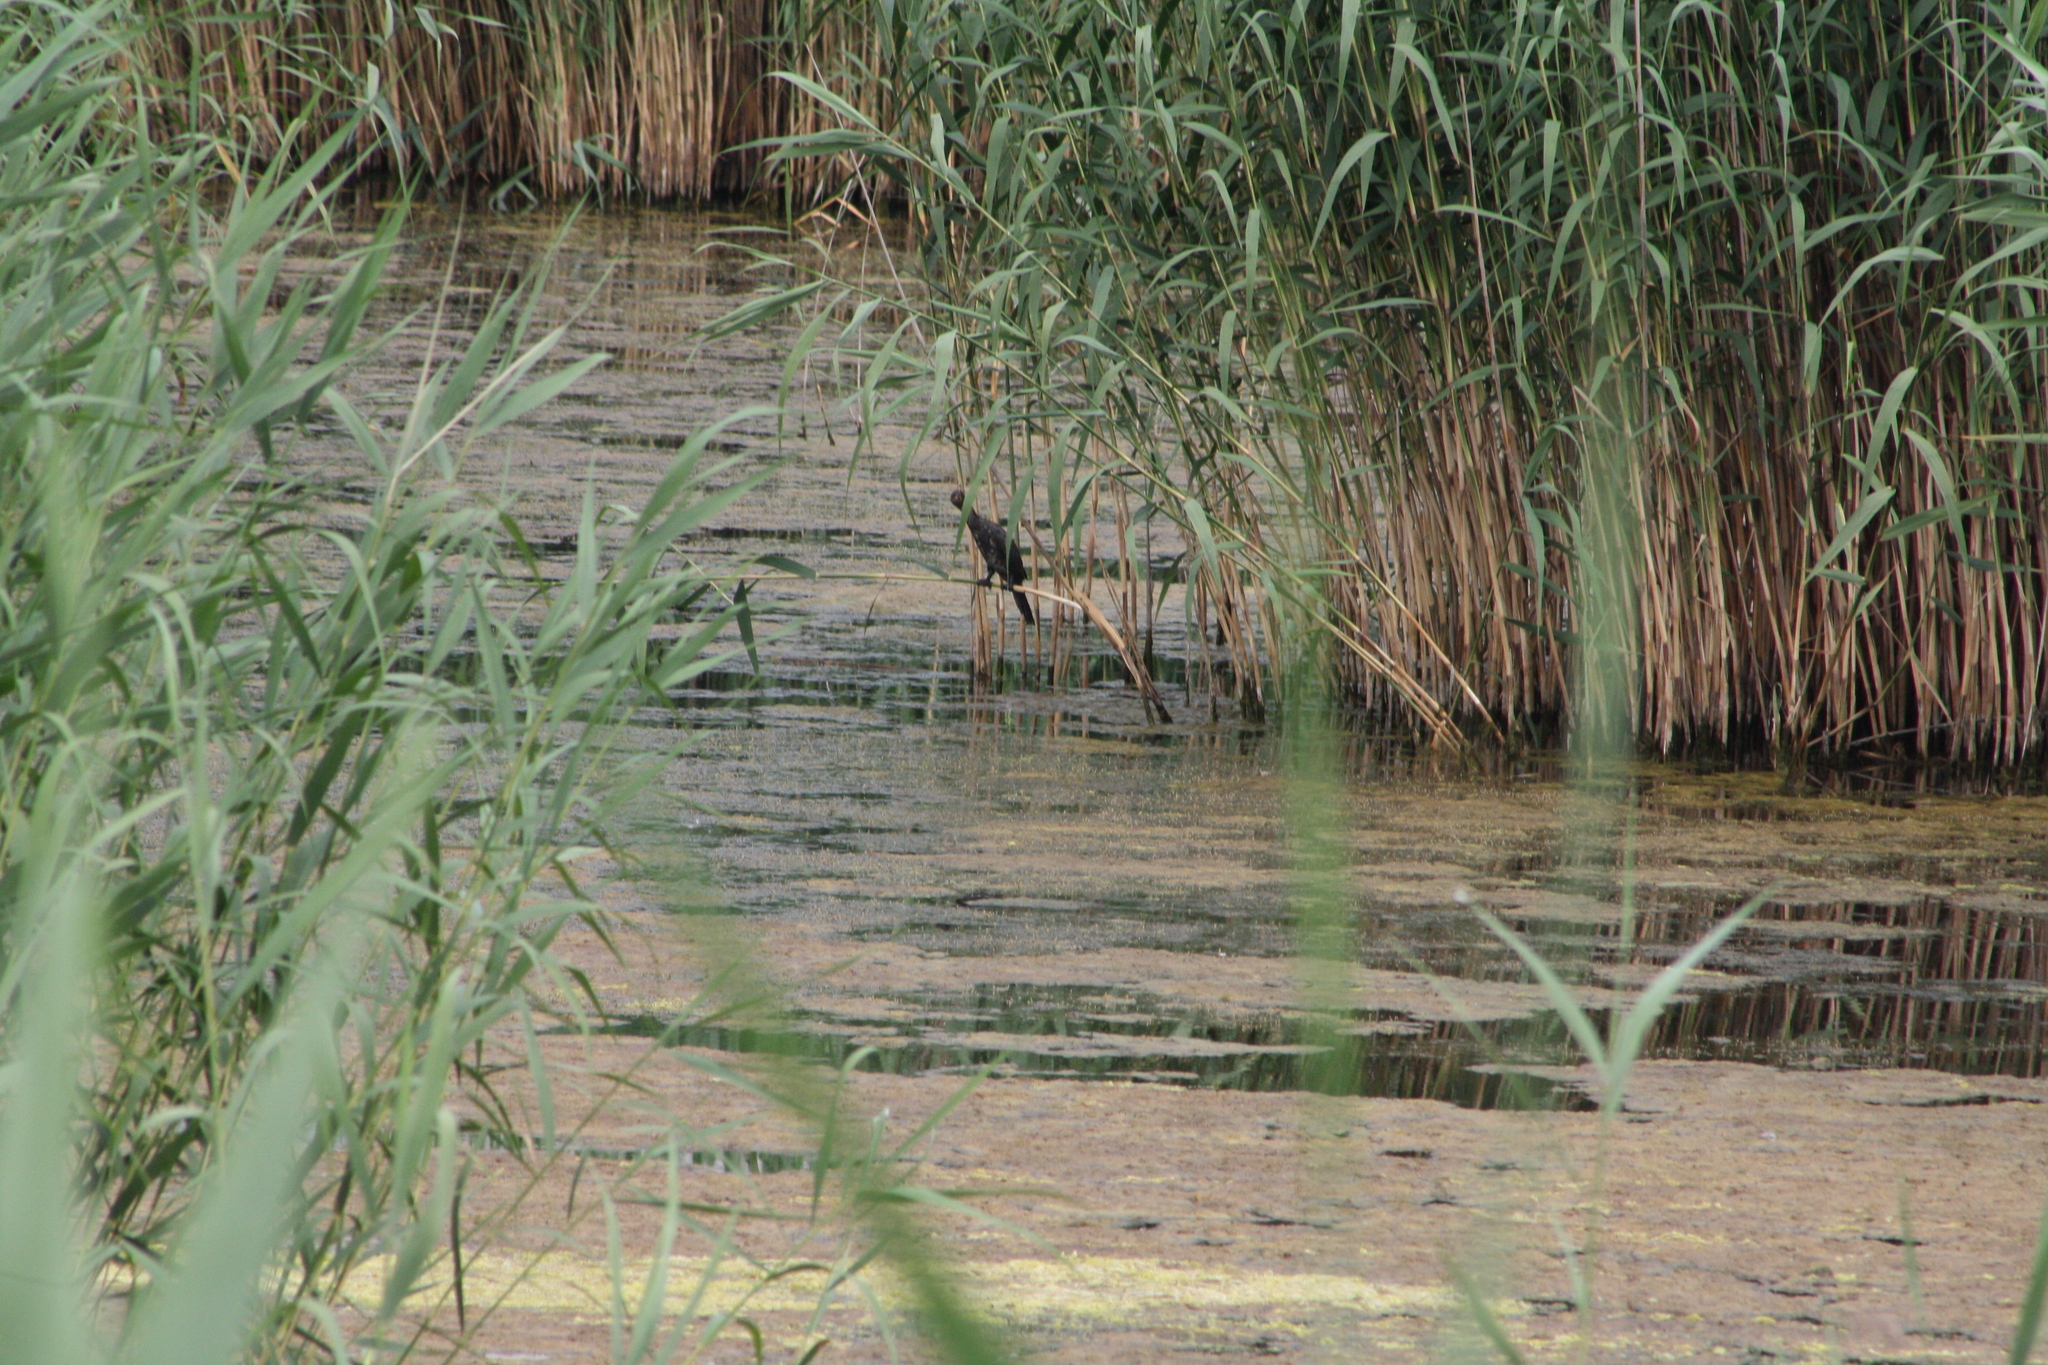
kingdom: Animalia
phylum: Chordata
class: Aves
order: Suliformes
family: Phalacrocoracidae
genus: Microcarbo
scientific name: Microcarbo pygmaeus
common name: Pygmy cormorant
